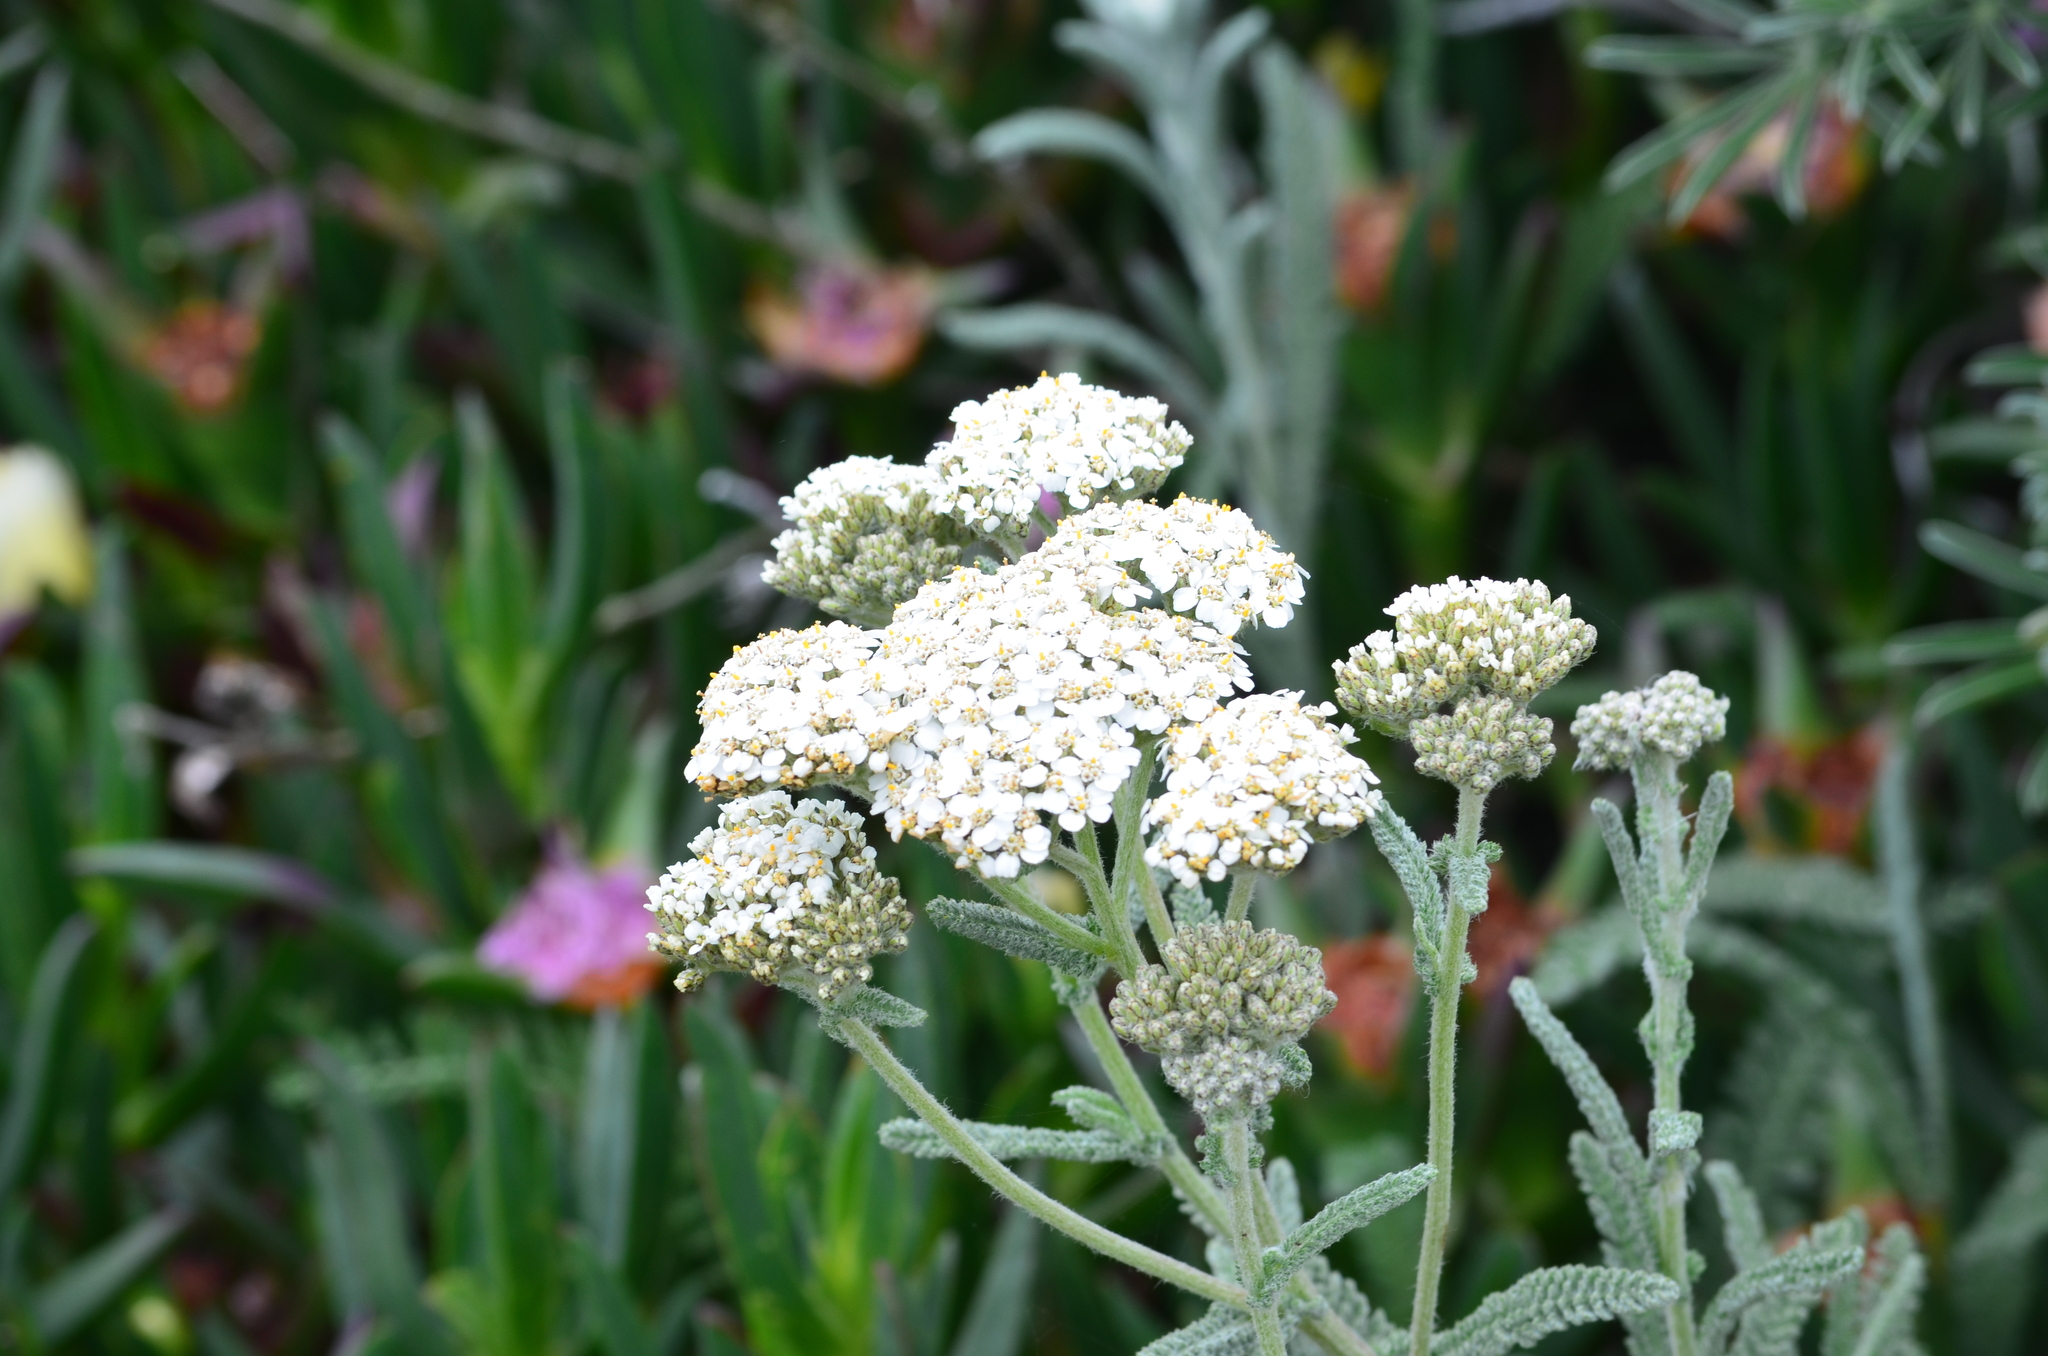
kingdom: Plantae
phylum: Tracheophyta
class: Magnoliopsida
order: Asterales
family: Asteraceae
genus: Achillea
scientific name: Achillea millefolium
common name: Yarrow
